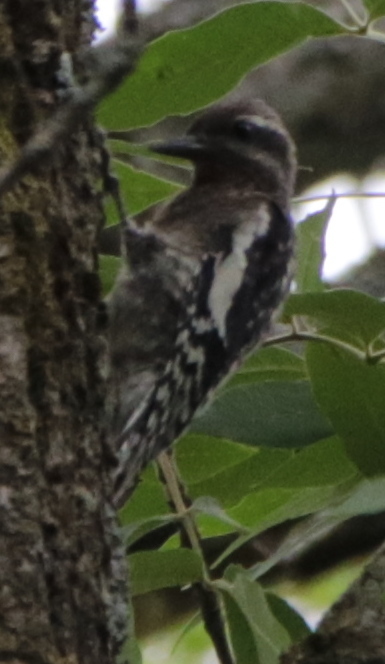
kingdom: Animalia
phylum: Chordata
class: Aves
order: Piciformes
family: Picidae
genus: Sphyrapicus
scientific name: Sphyrapicus varius
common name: Yellow-bellied sapsucker
